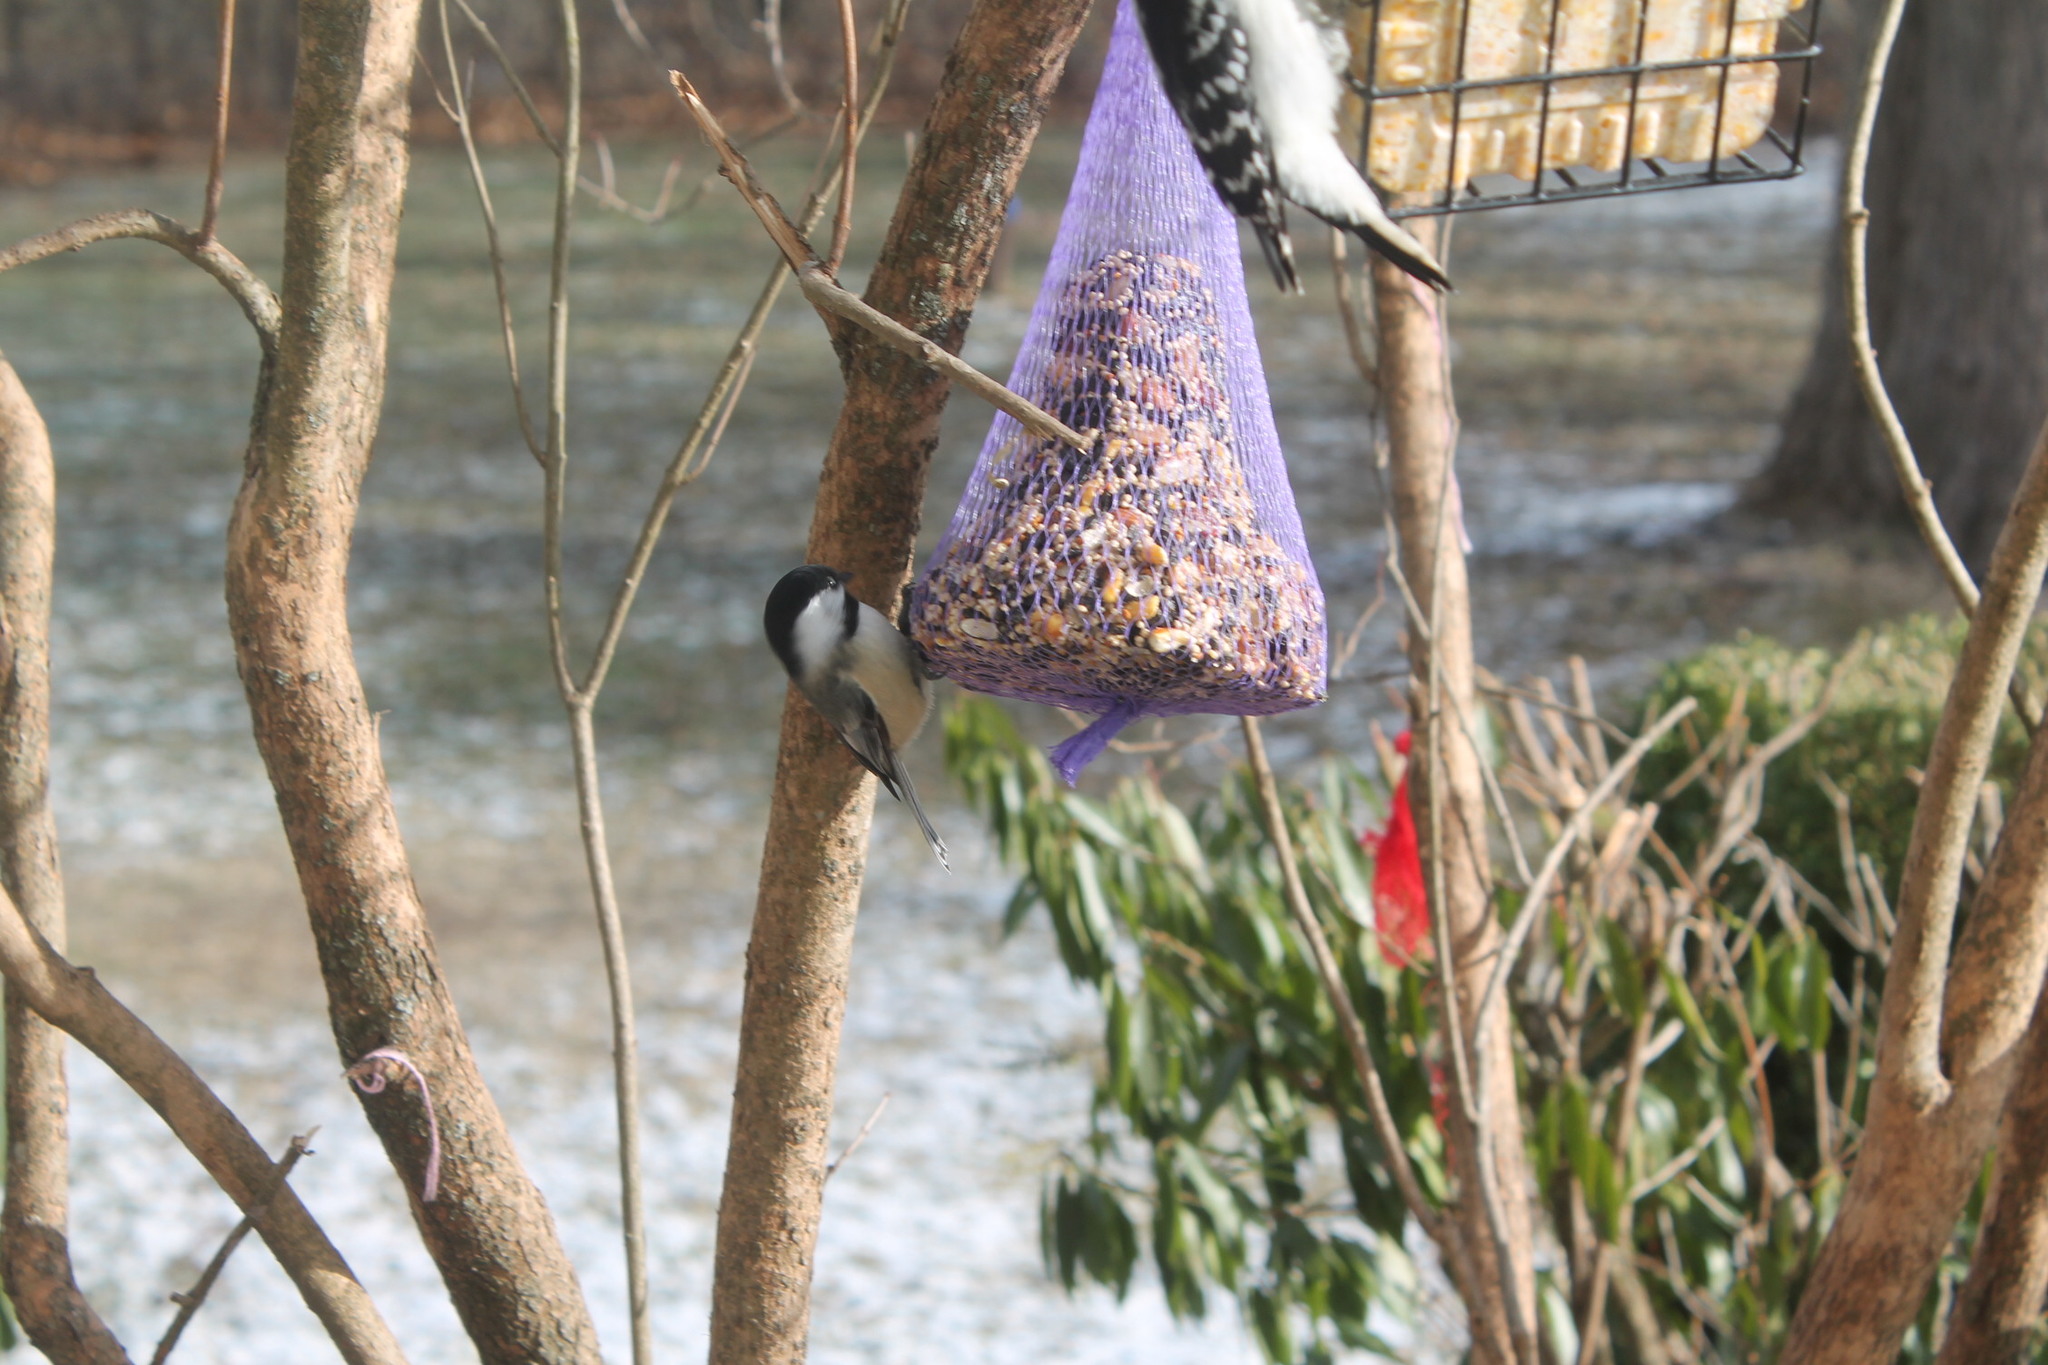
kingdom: Animalia
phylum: Chordata
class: Aves
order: Passeriformes
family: Paridae
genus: Poecile
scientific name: Poecile atricapillus
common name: Black-capped chickadee
